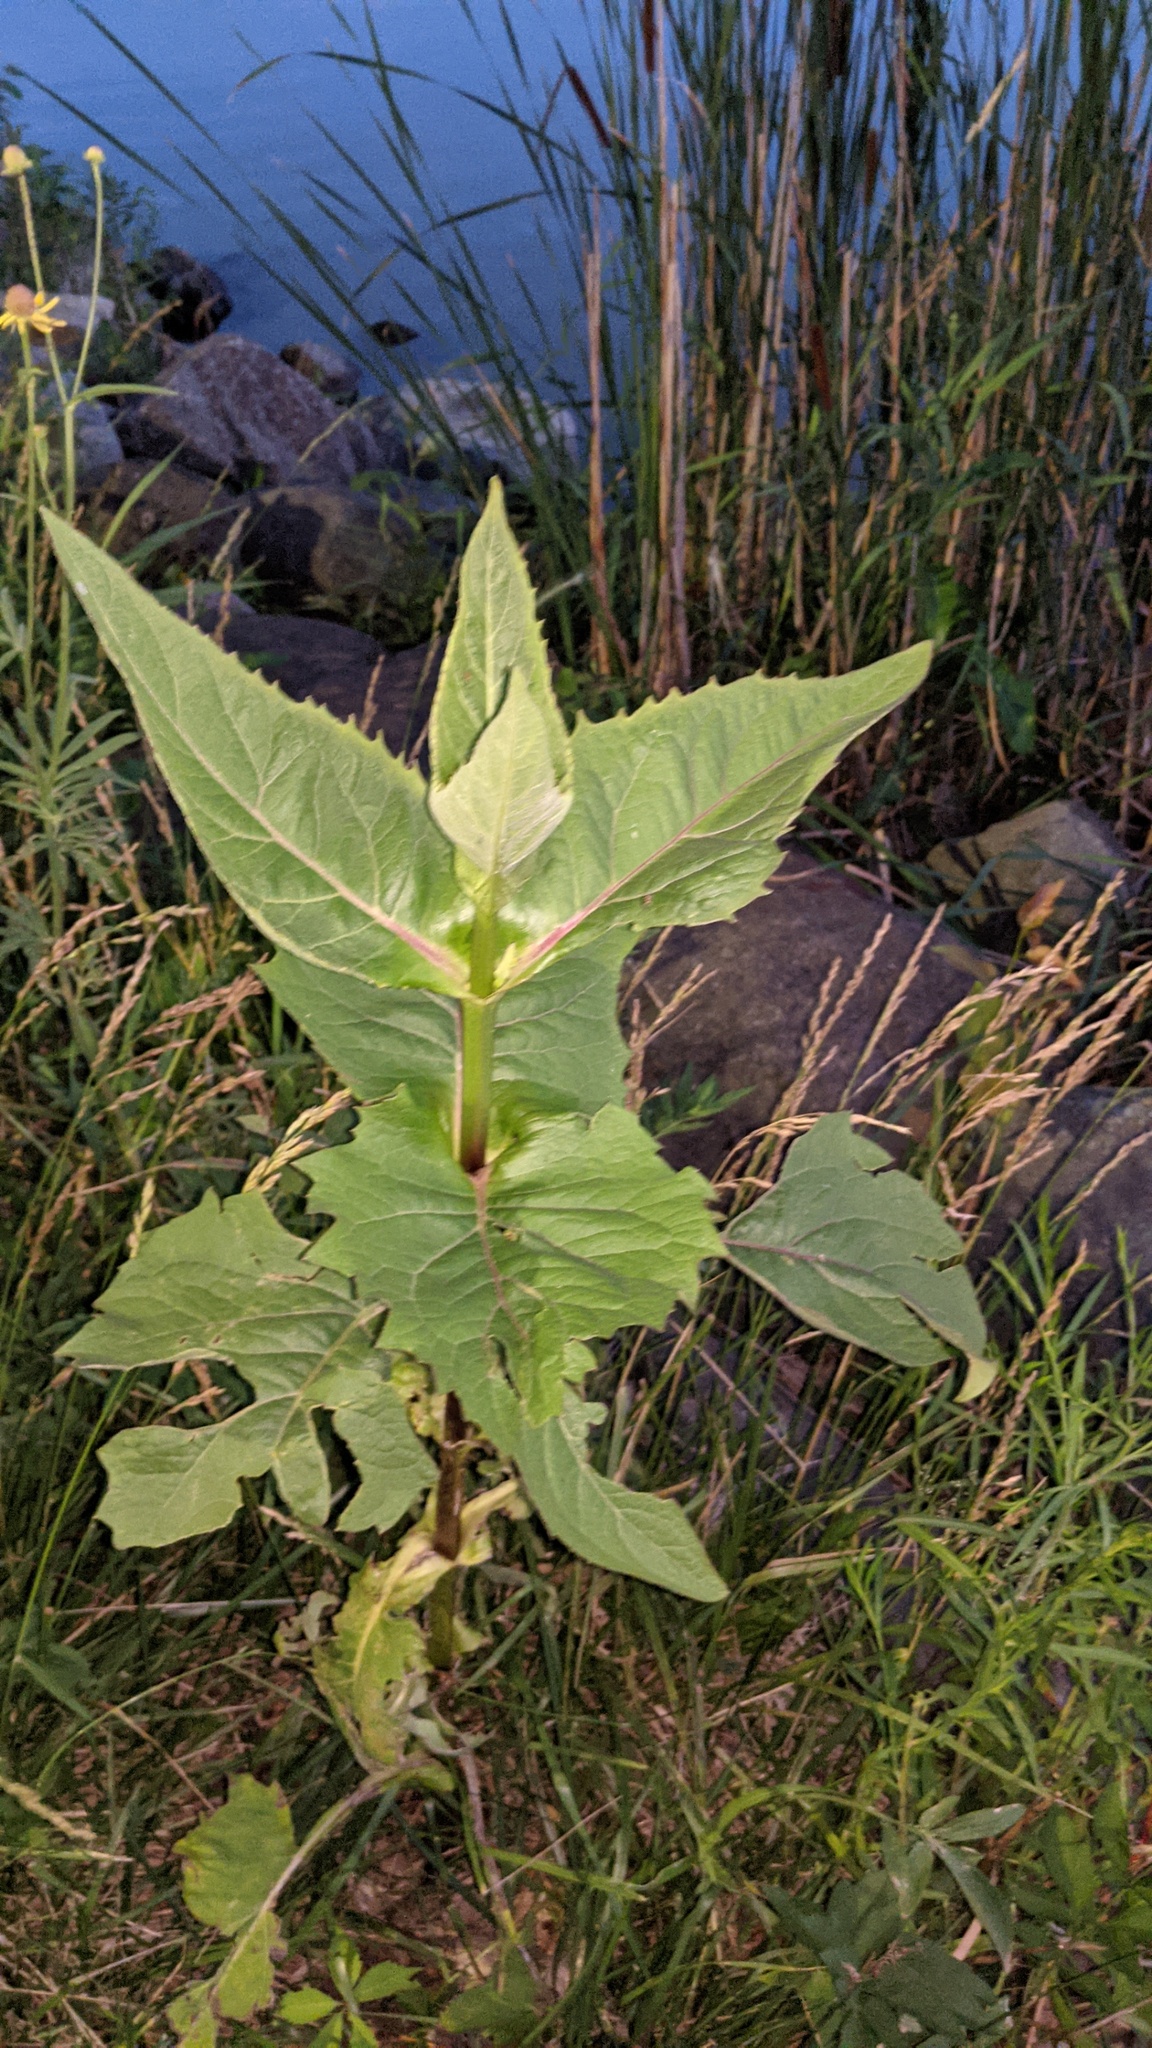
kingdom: Plantae
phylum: Tracheophyta
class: Magnoliopsida
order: Asterales
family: Asteraceae
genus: Silphium
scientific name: Silphium perfoliatum
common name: Cup-plant
